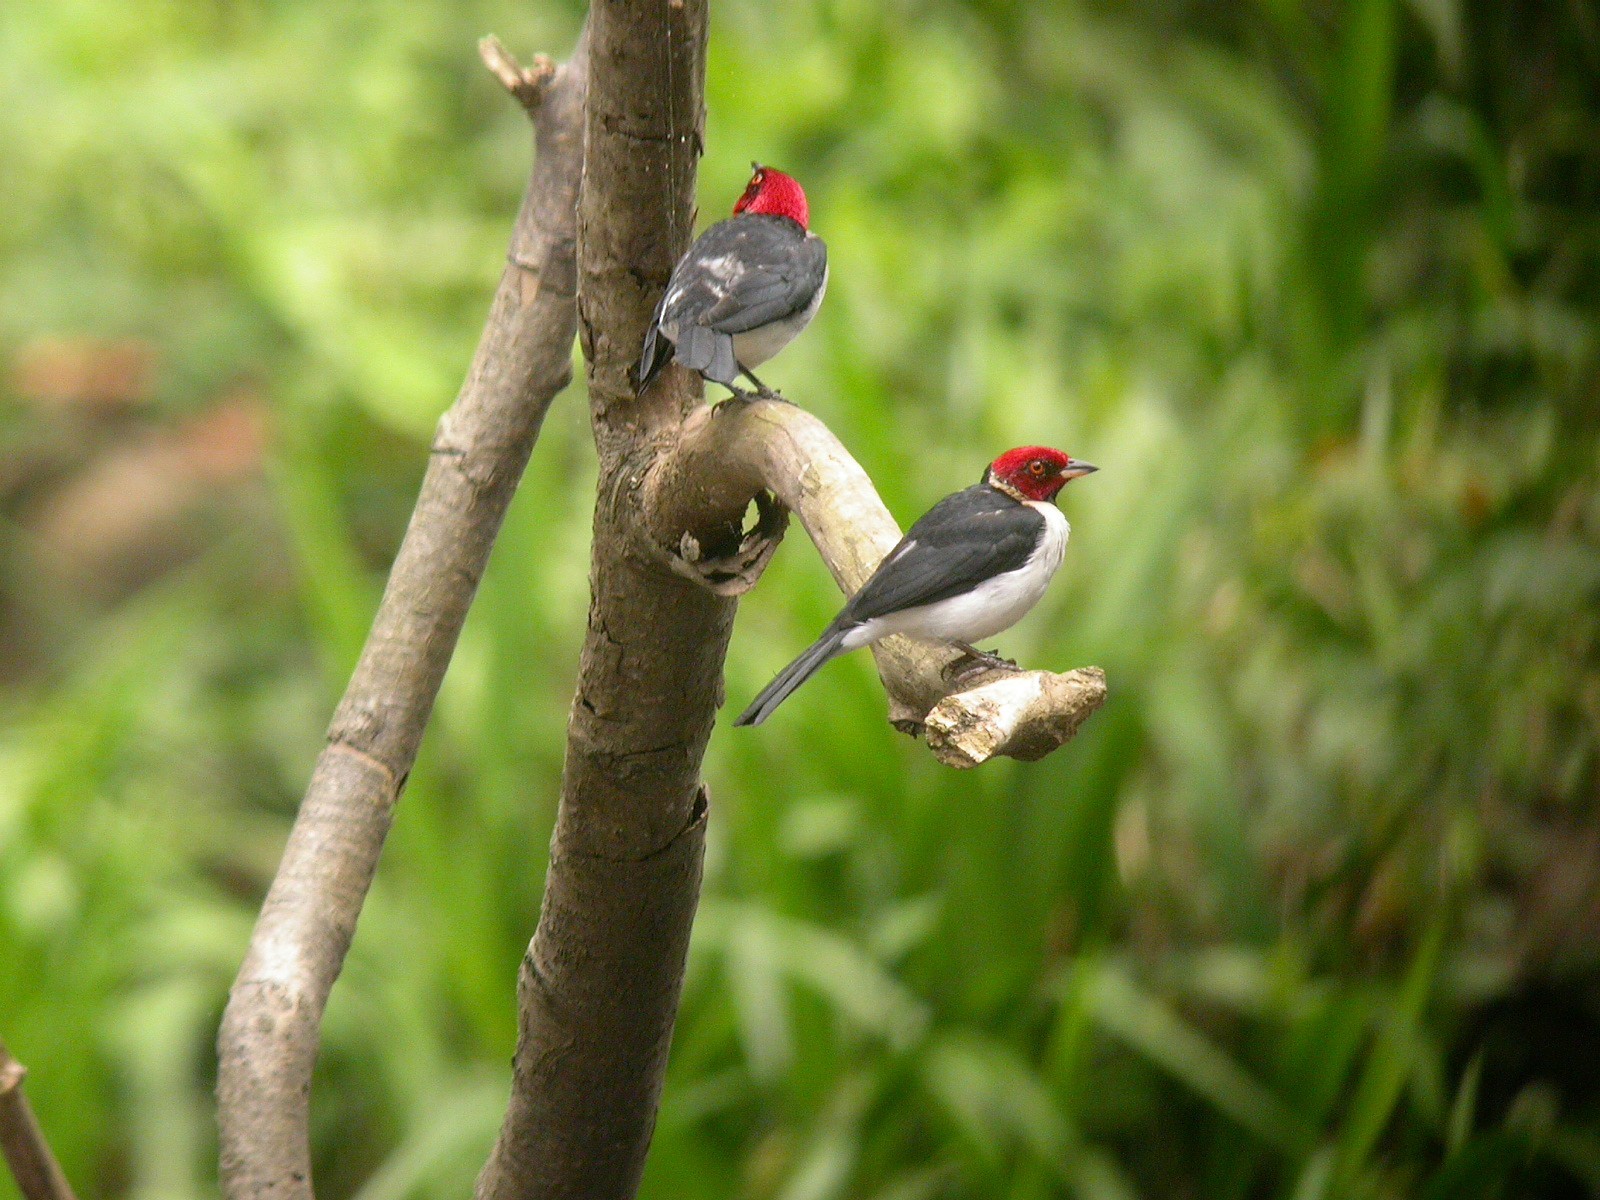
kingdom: Animalia
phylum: Chordata
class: Aves
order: Passeriformes
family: Thraupidae
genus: Paroaria
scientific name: Paroaria gularis
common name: Red-capped cardinal
